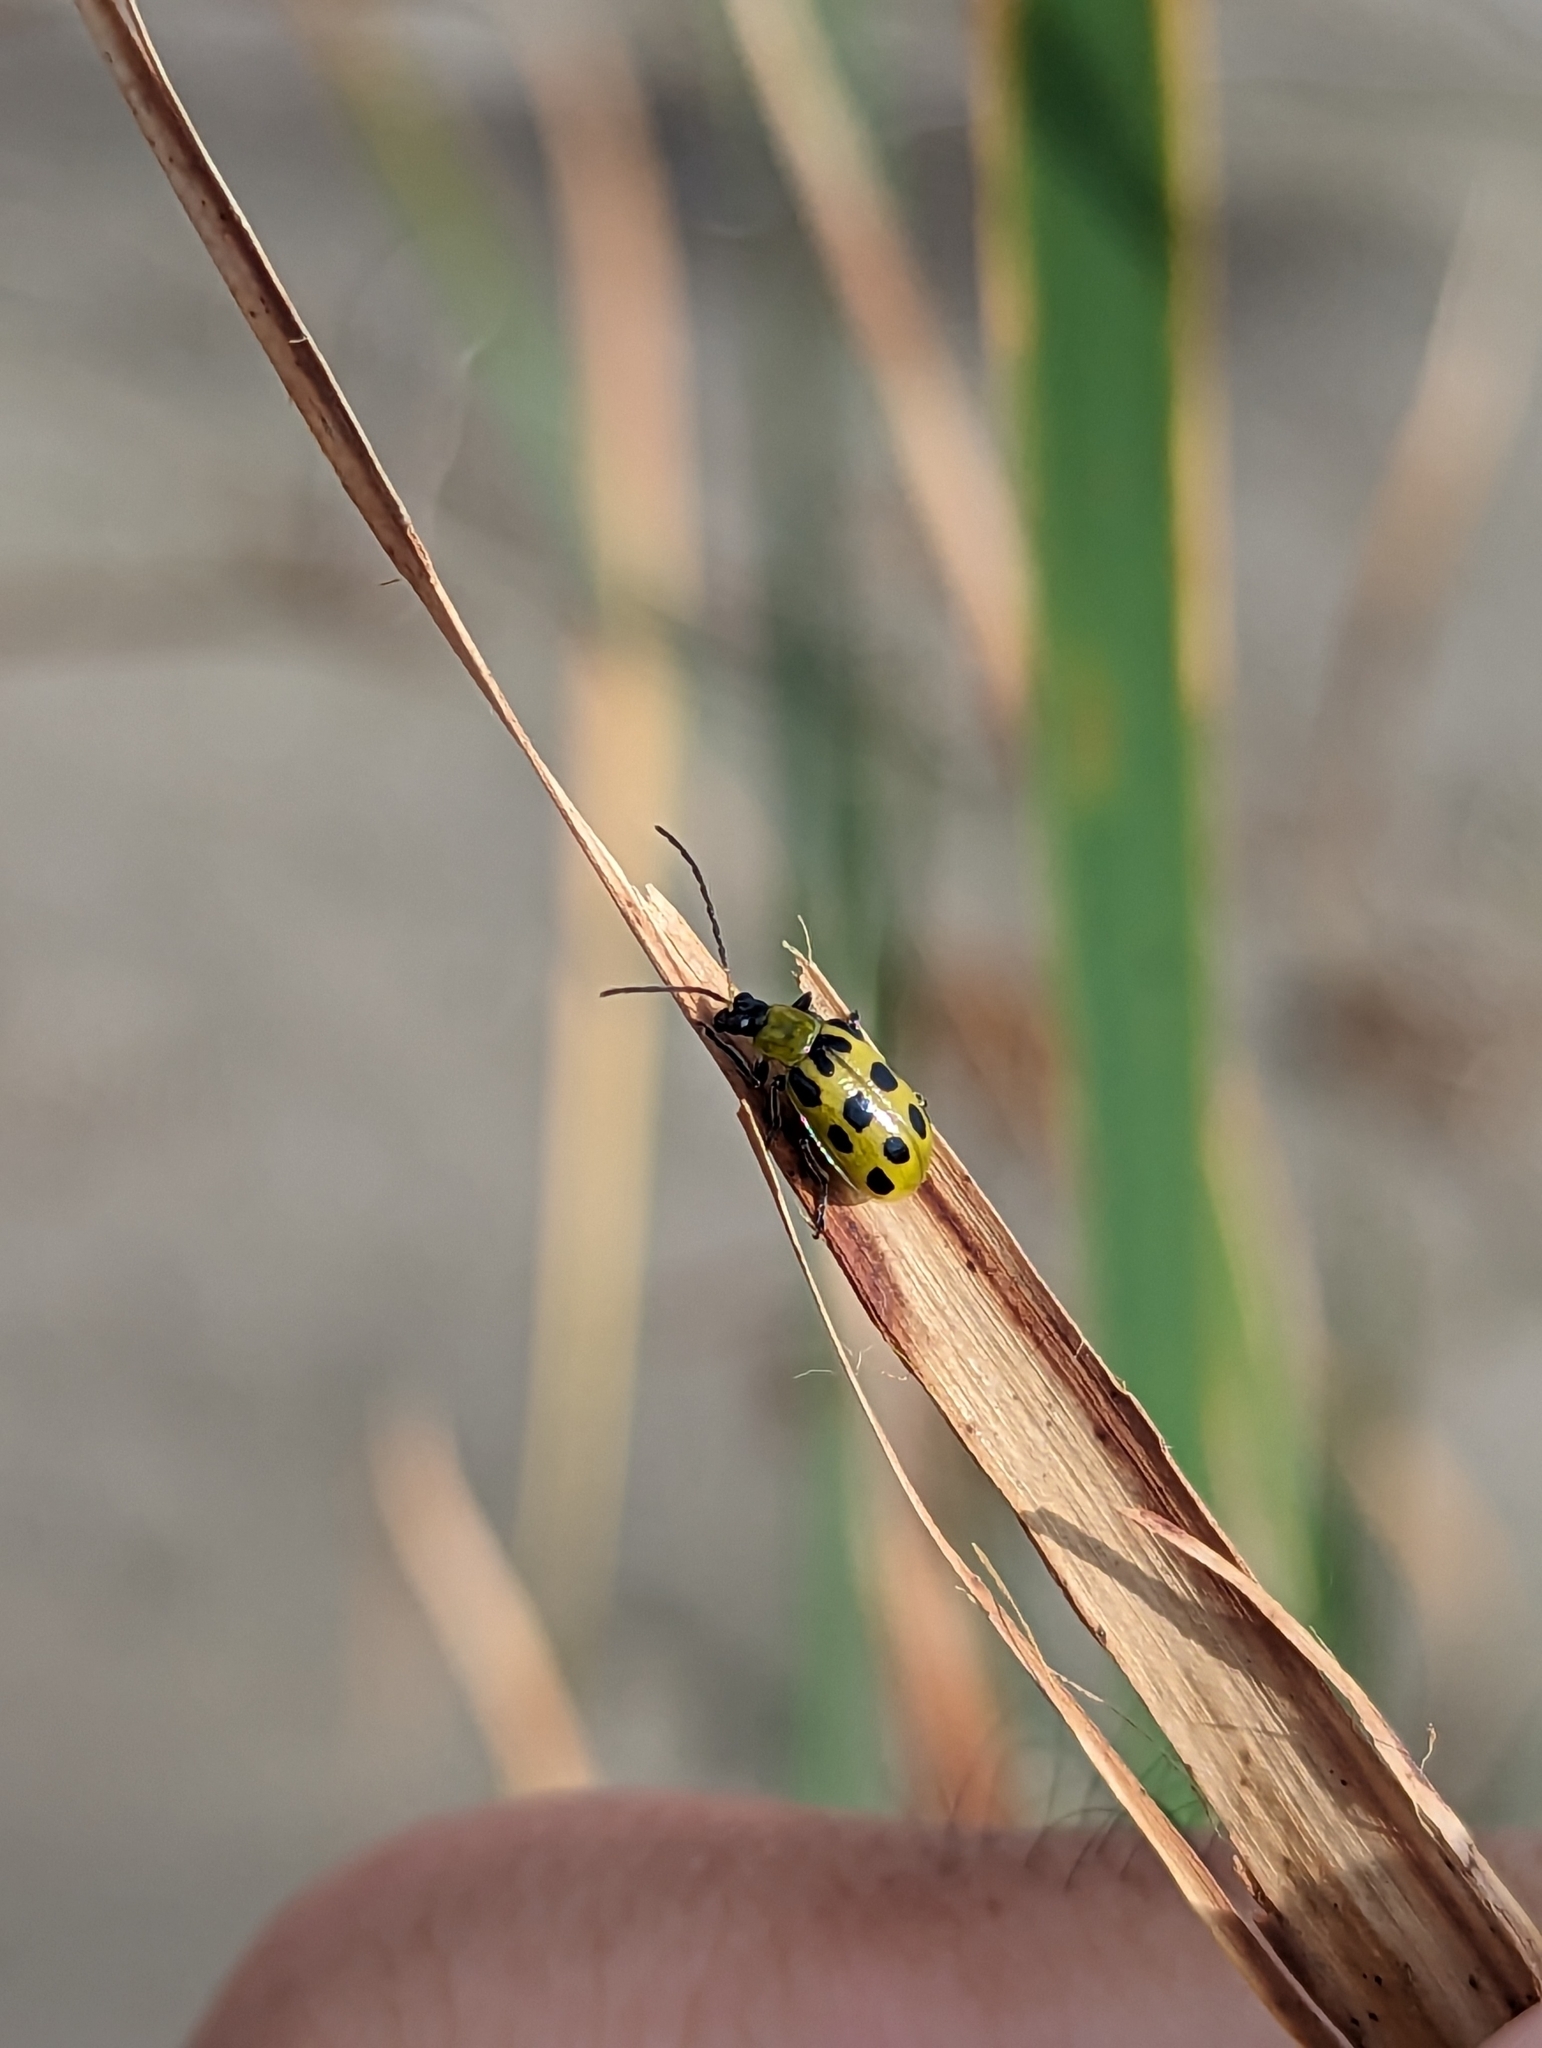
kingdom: Animalia
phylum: Arthropoda
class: Insecta
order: Coleoptera
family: Chrysomelidae
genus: Diabrotica
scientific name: Diabrotica undecimpunctata
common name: Spotted cucumber beetle
